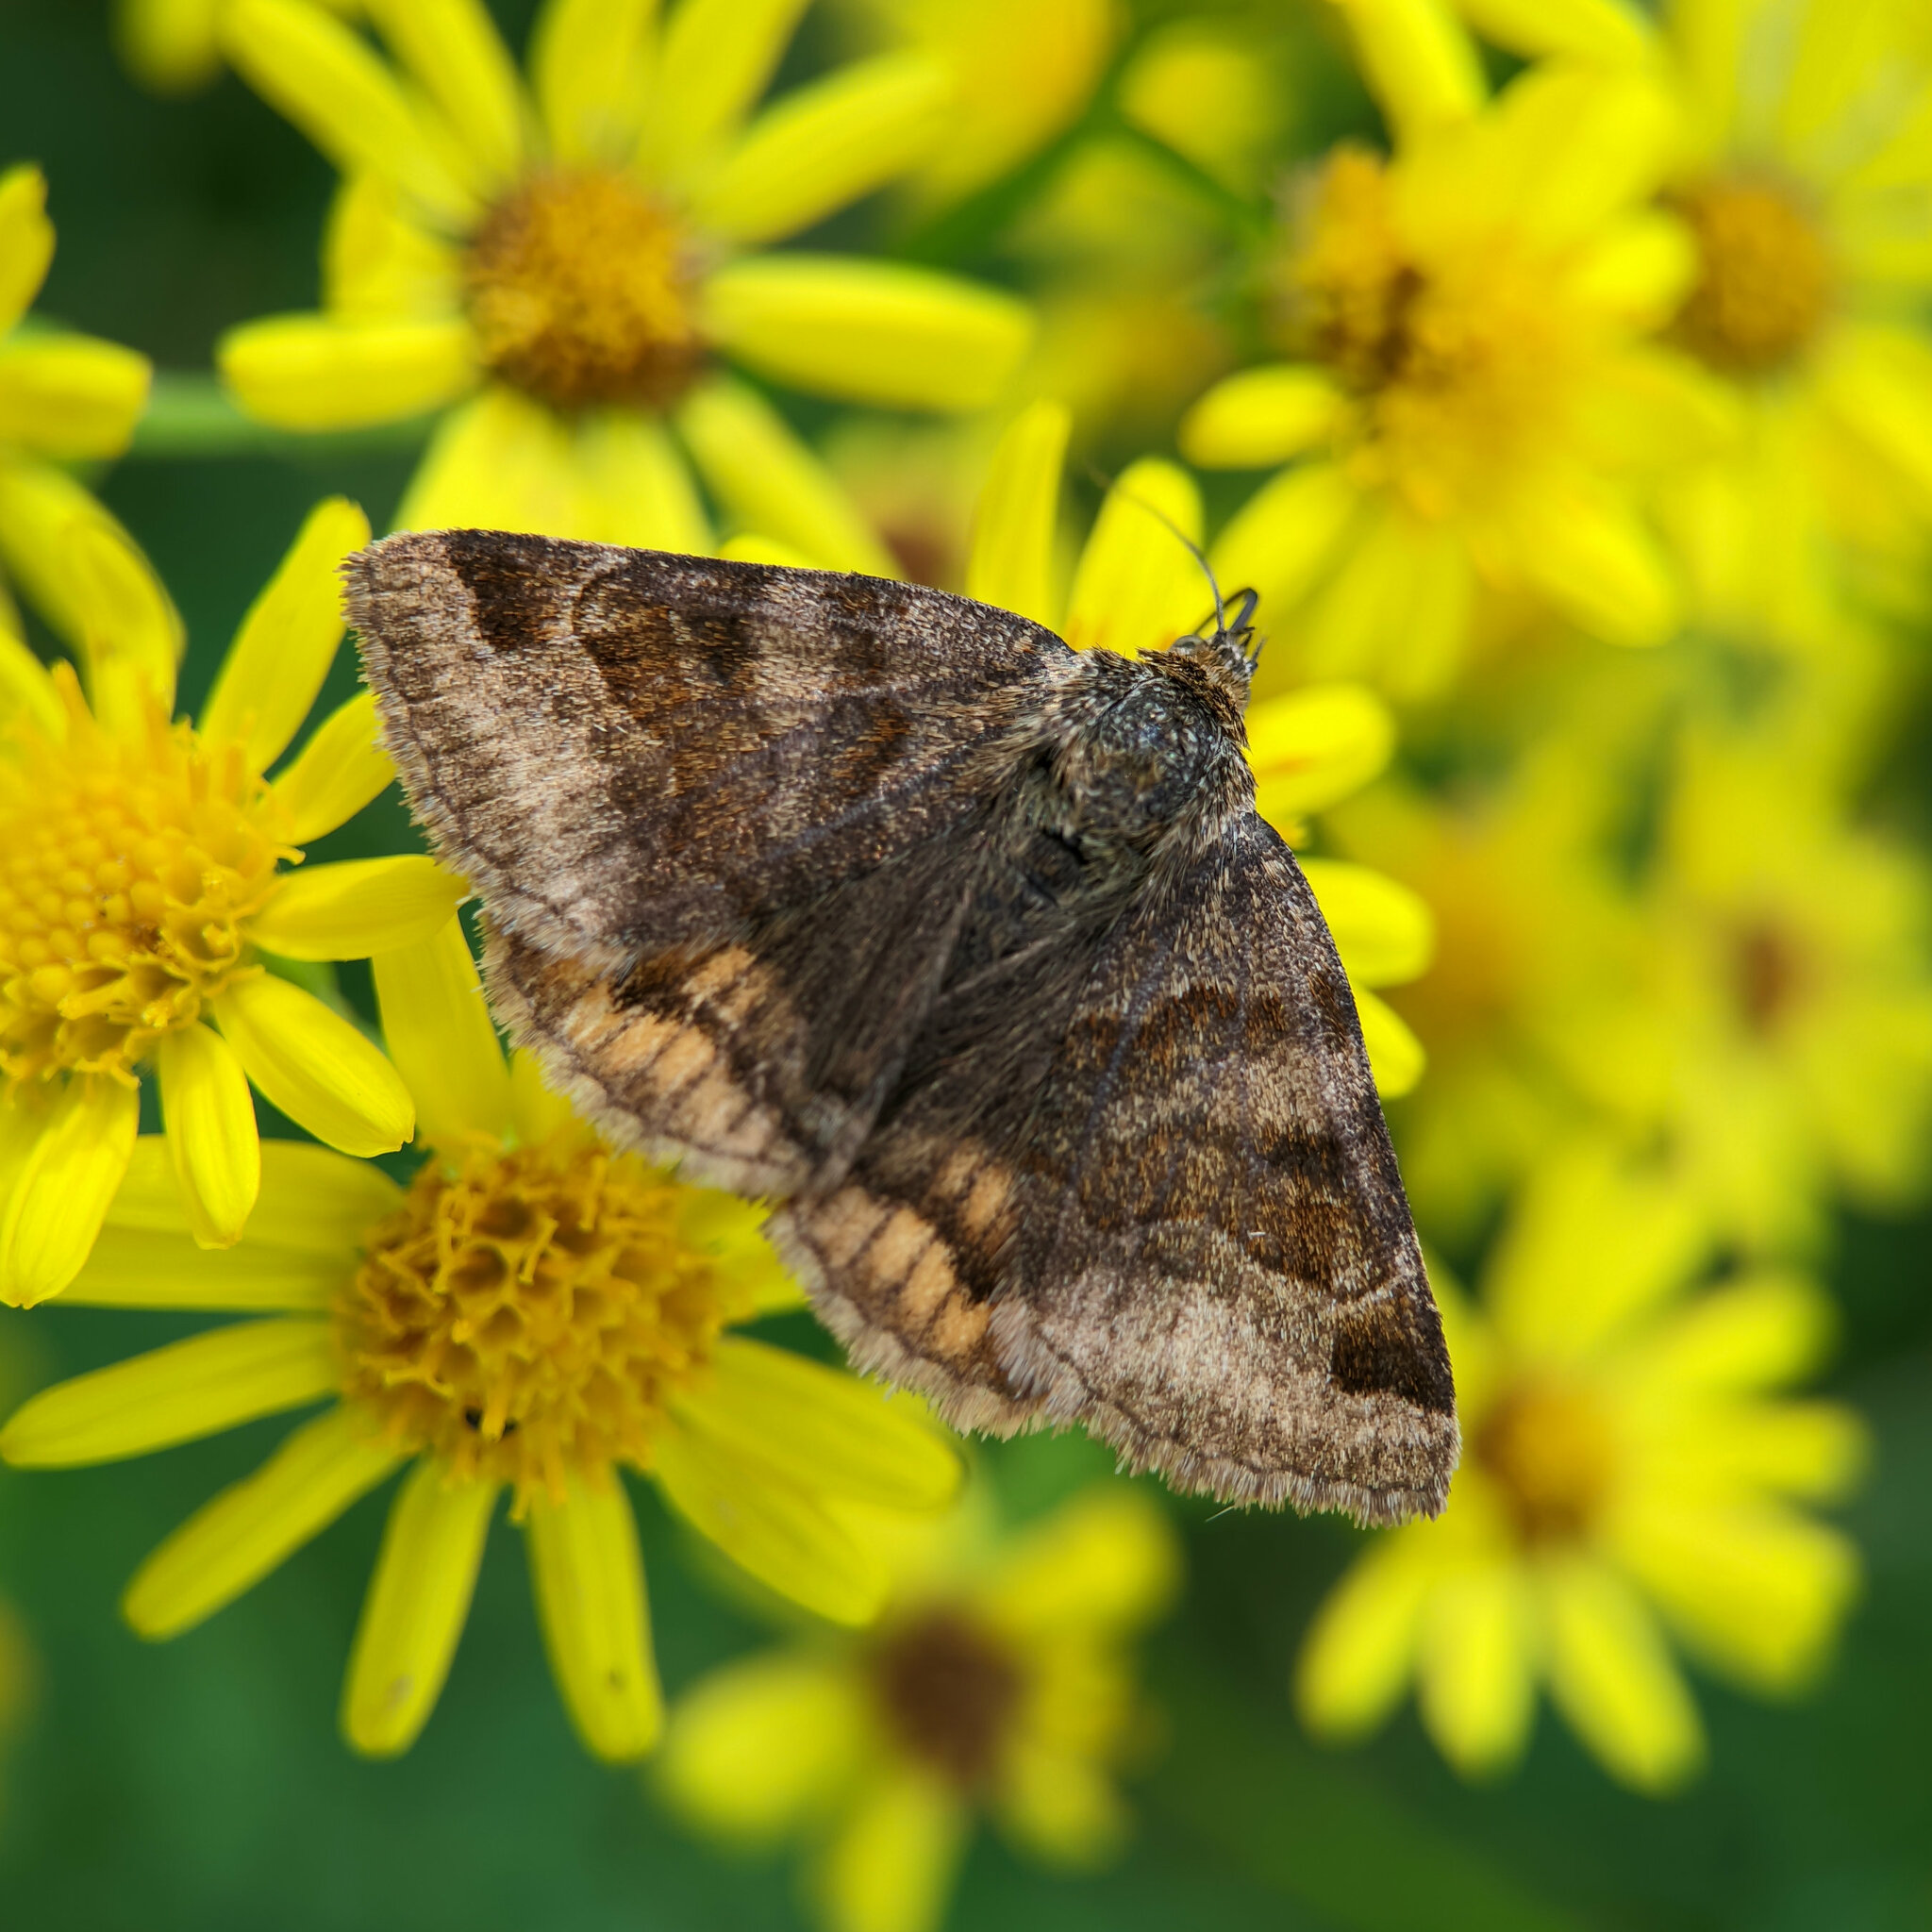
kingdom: Animalia
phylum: Arthropoda
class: Insecta
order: Lepidoptera
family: Erebidae
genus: Euclidia
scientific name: Euclidia glyphica
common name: Burnet companion
